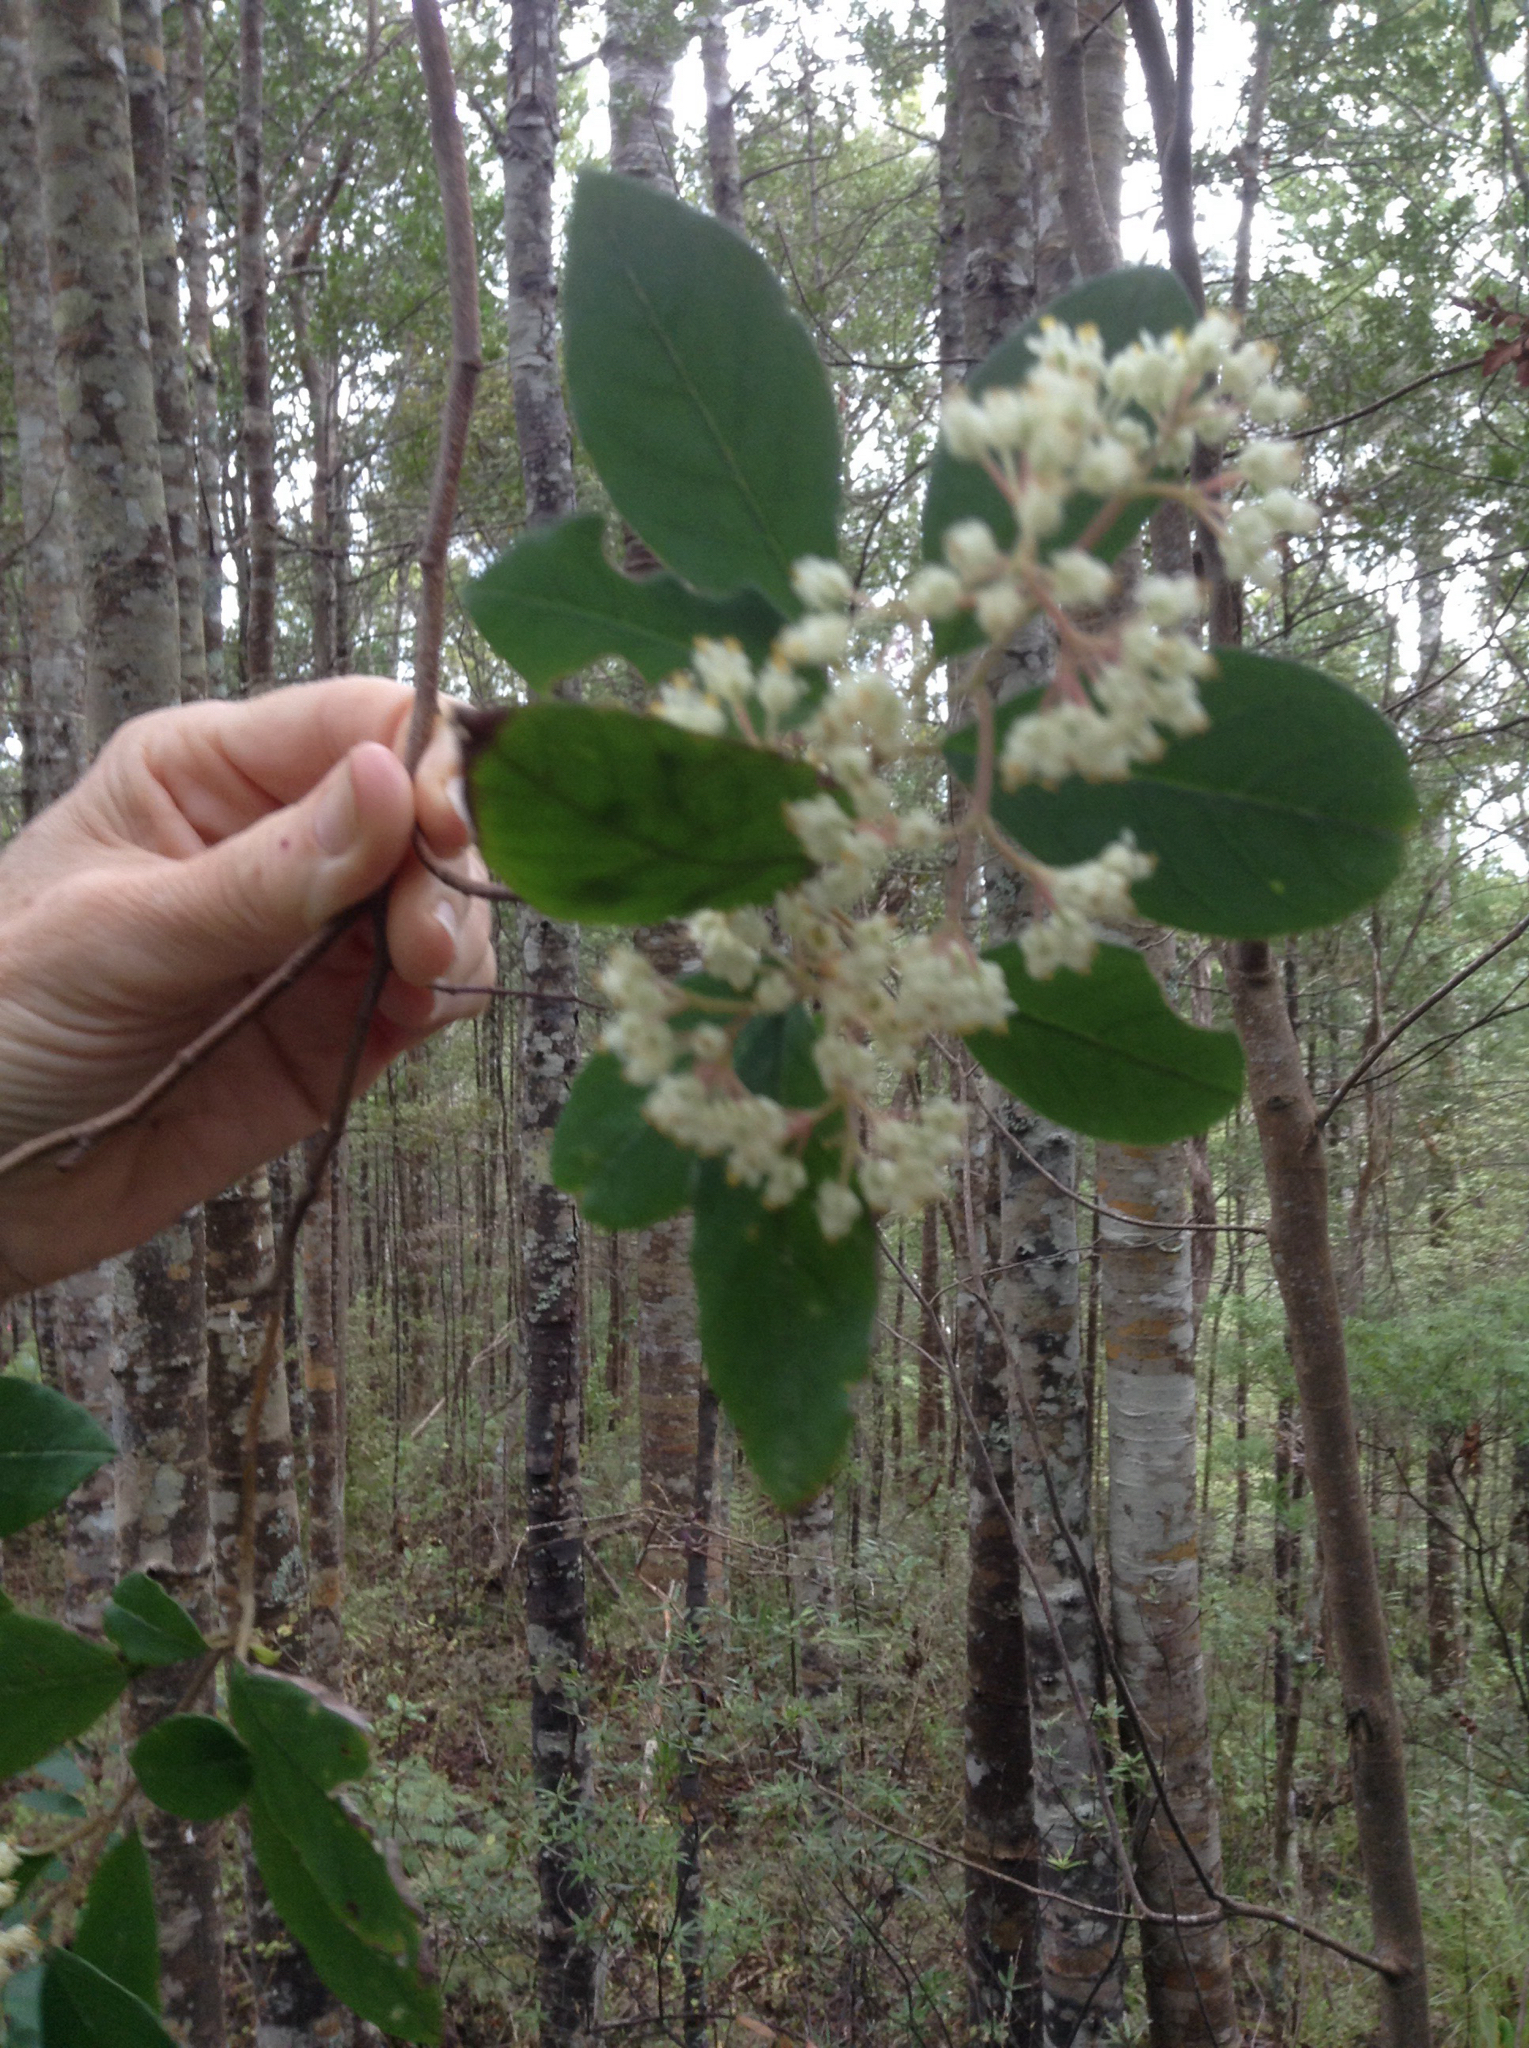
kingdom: Plantae
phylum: Tracheophyta
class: Magnoliopsida
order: Rosales
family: Rhamnaceae
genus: Pomaderris
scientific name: Pomaderris hamiltonii
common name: Pale-flowered kumarahou
